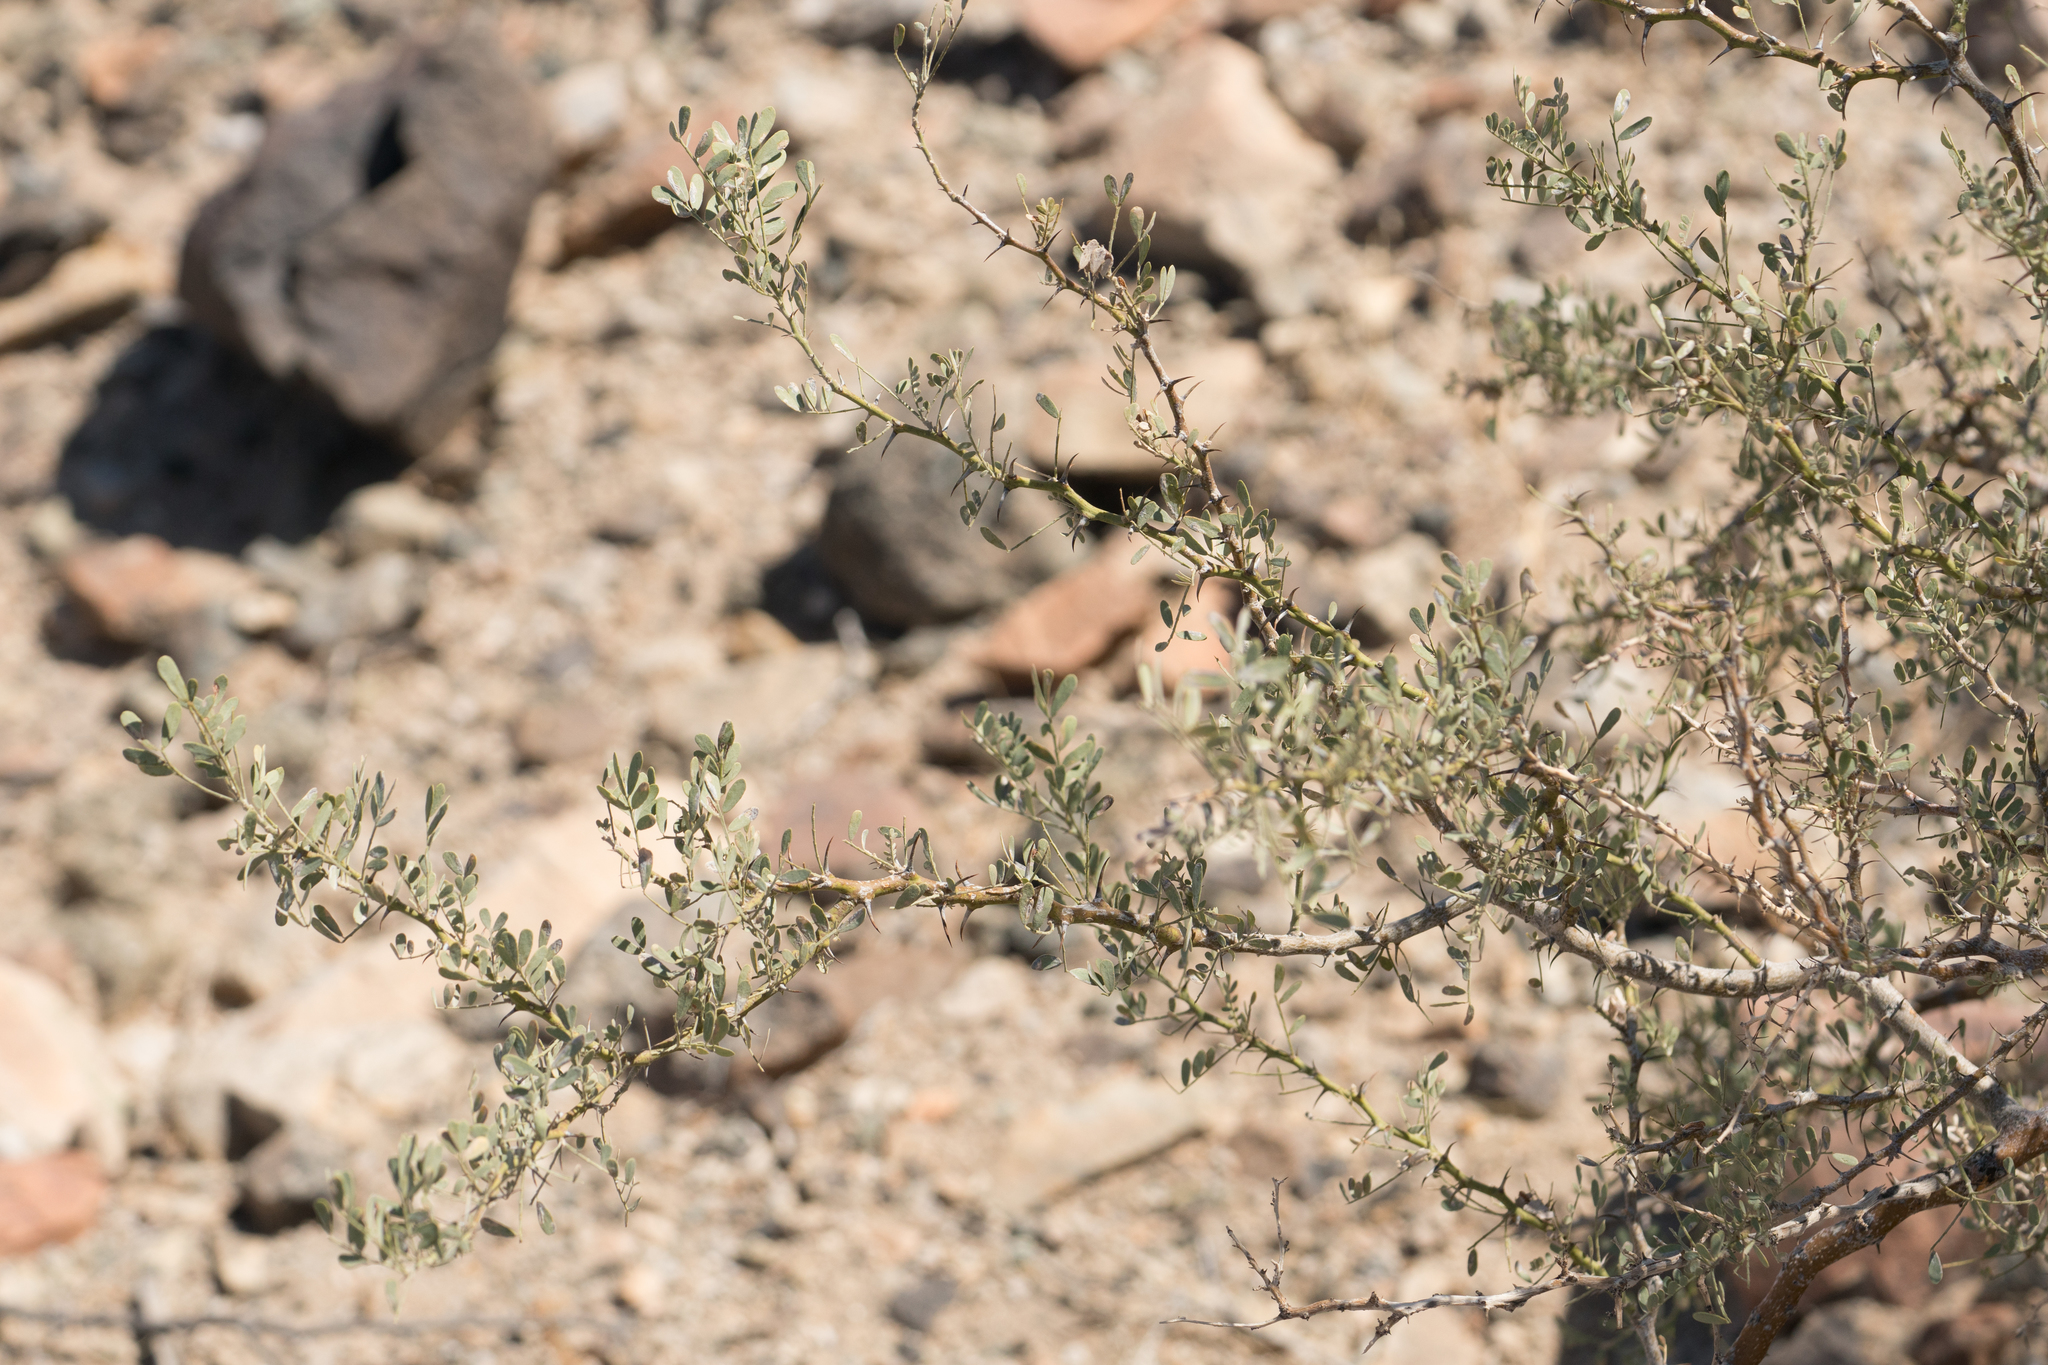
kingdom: Plantae
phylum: Tracheophyta
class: Magnoliopsida
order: Fabales
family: Fabaceae
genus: Olneya
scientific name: Olneya tesota
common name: Desert ironwood
